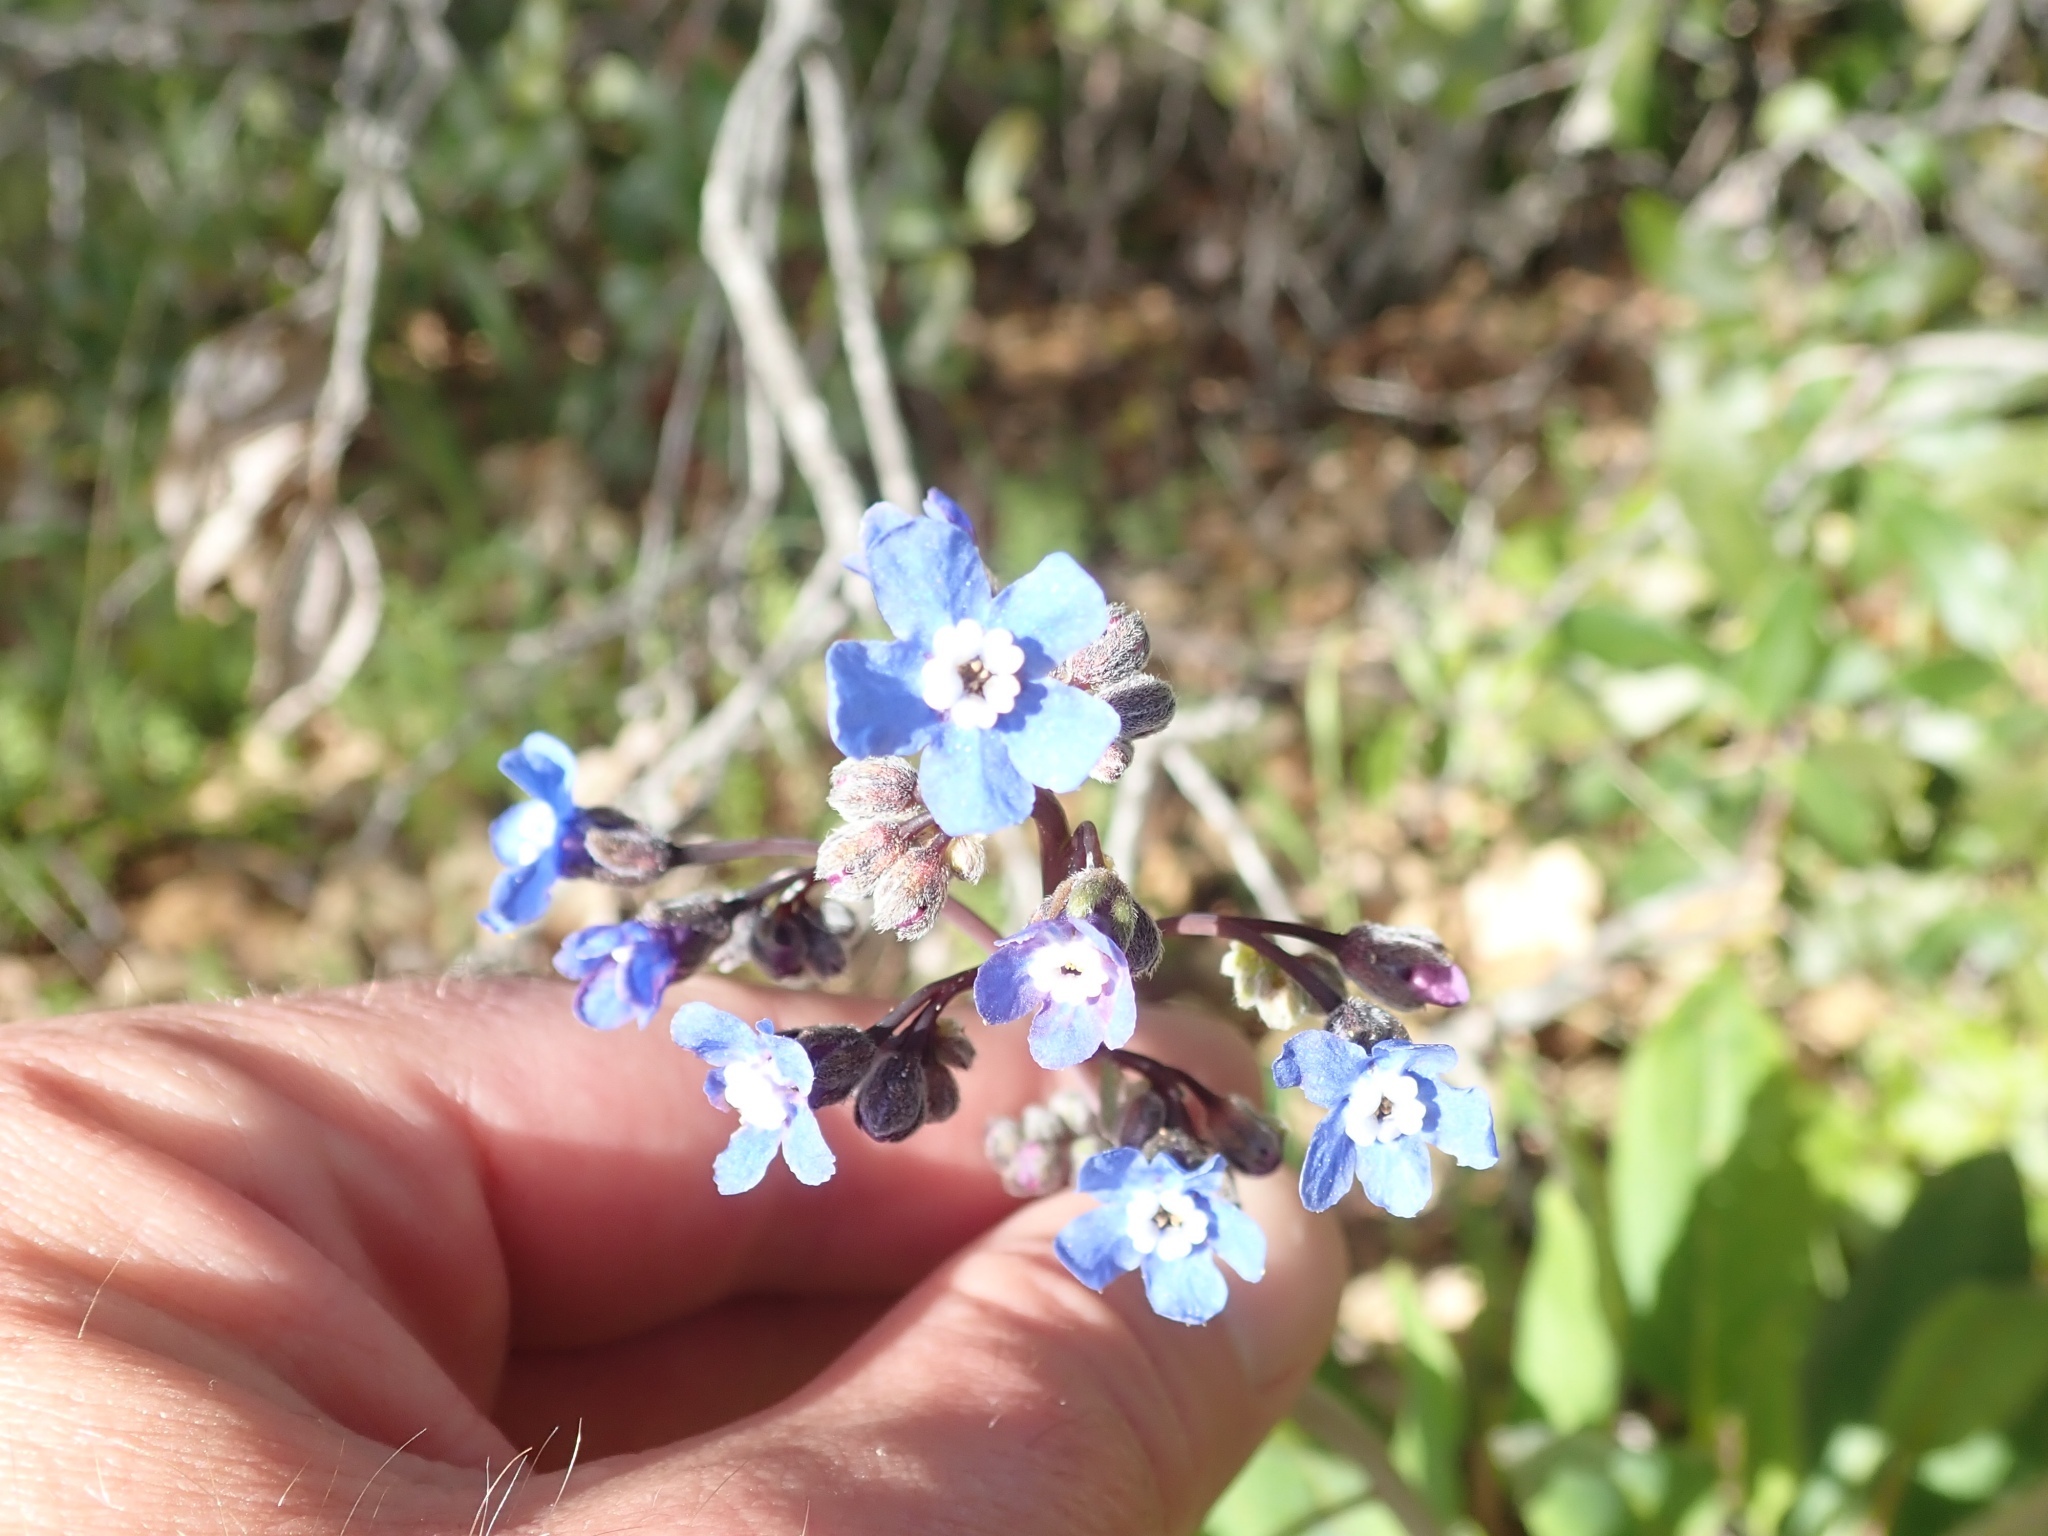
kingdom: Plantae
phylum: Tracheophyta
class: Magnoliopsida
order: Boraginales
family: Boraginaceae
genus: Adelinia
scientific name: Adelinia grande
